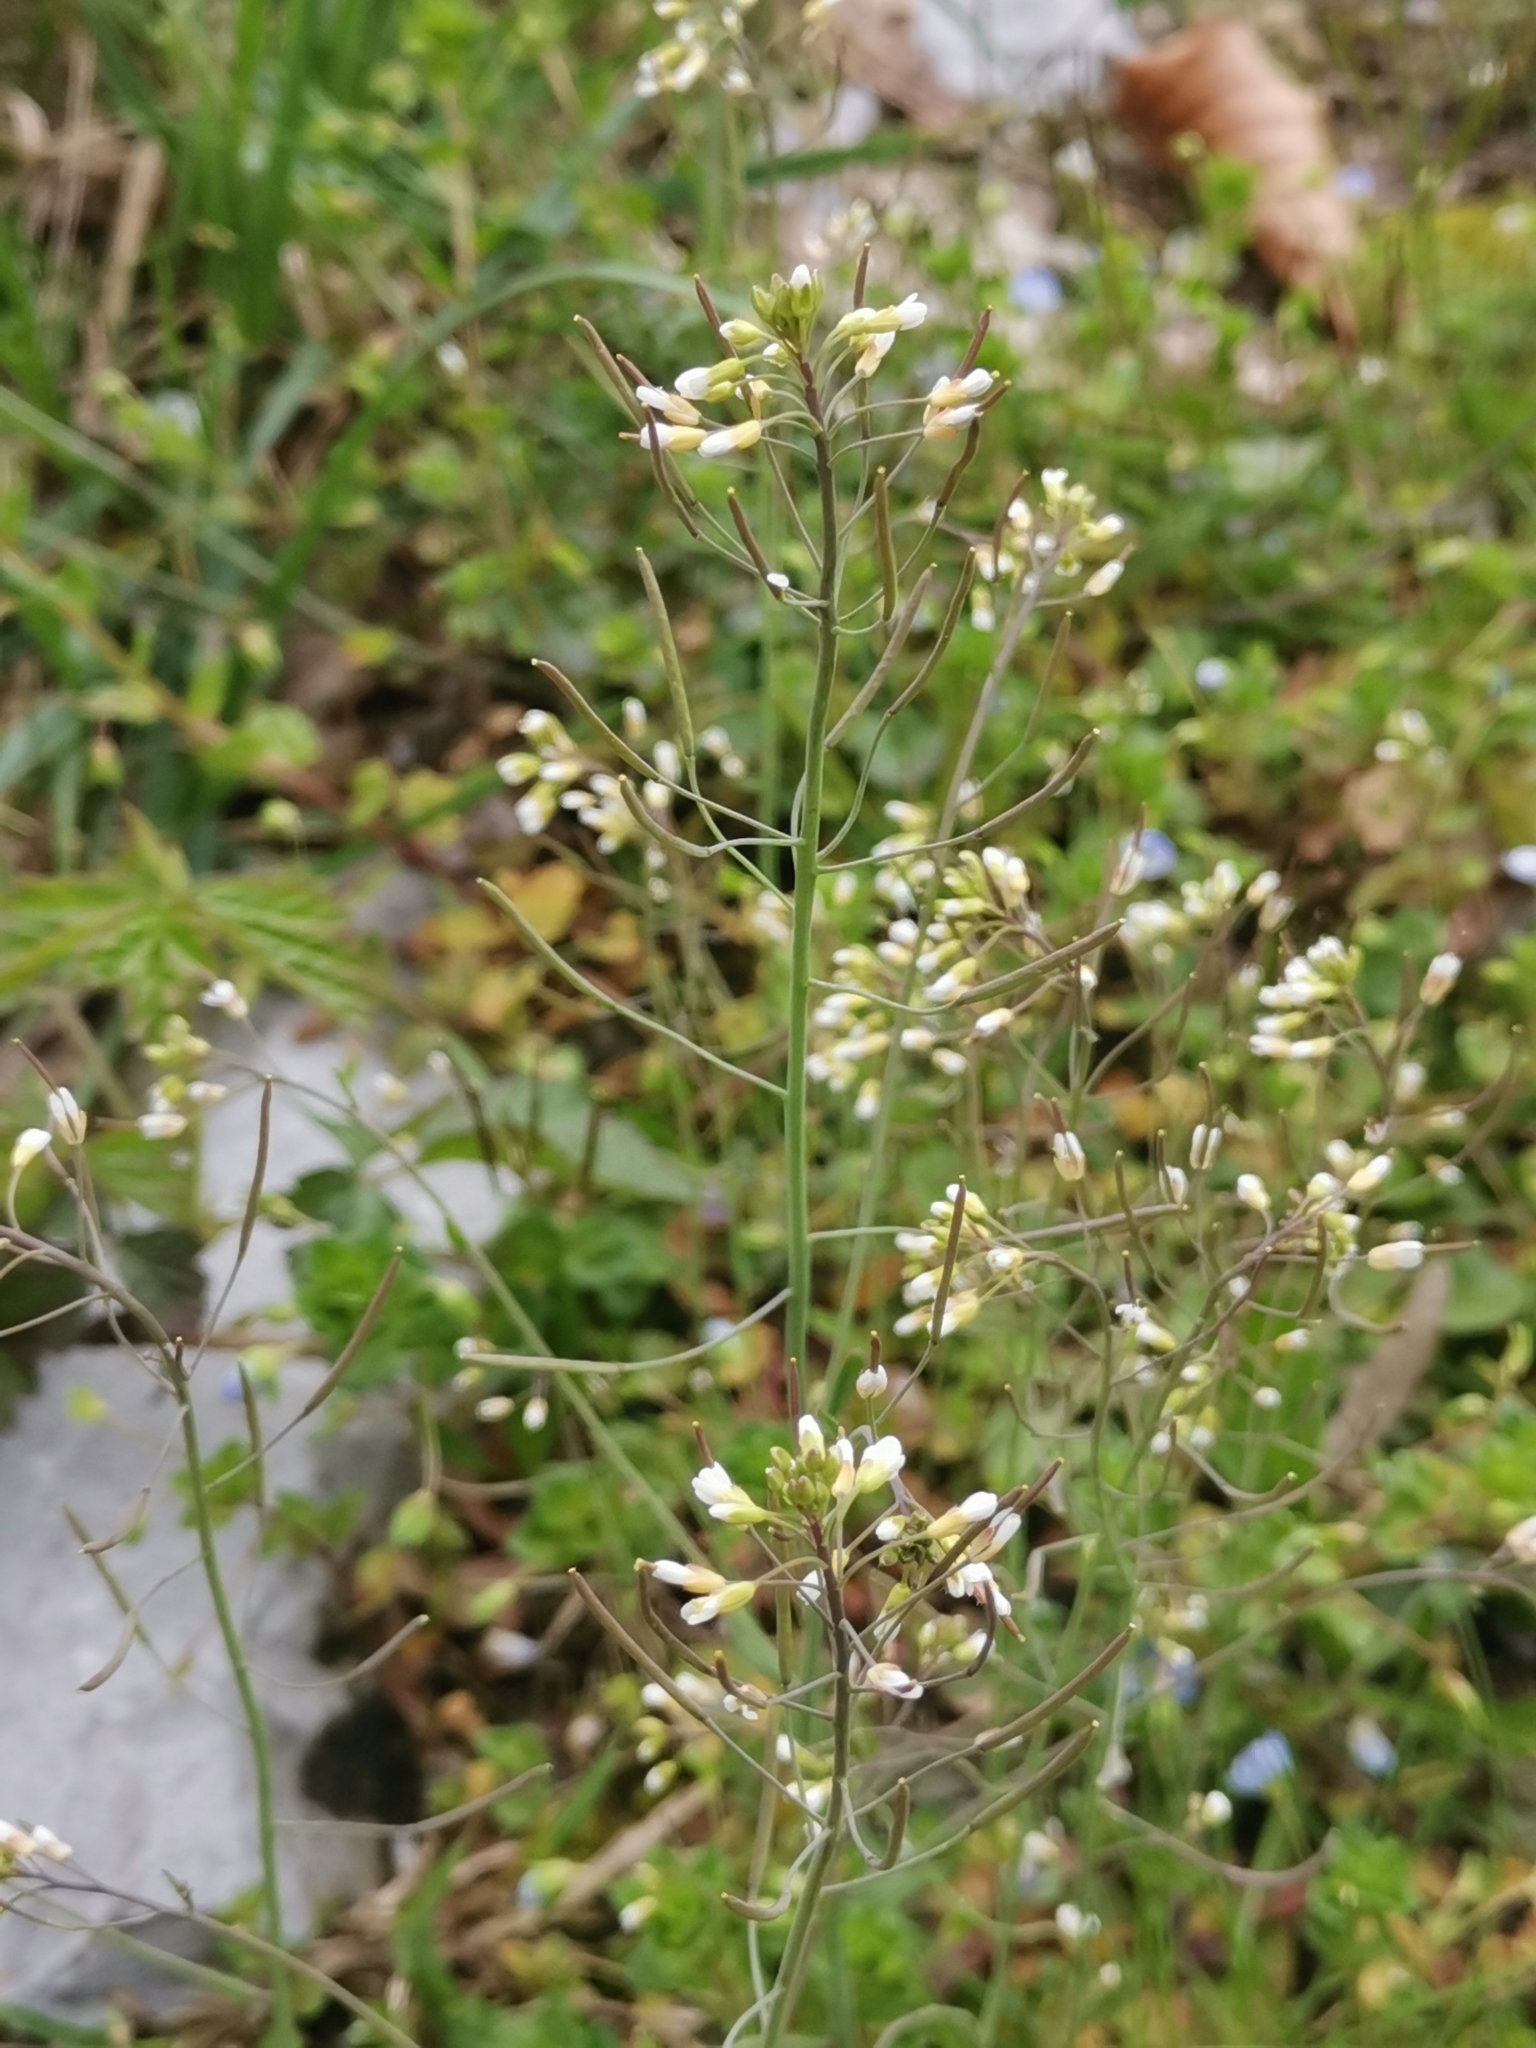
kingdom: Plantae
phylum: Tracheophyta
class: Magnoliopsida
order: Brassicales
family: Brassicaceae
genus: Arabidopsis
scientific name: Arabidopsis thaliana
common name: Thale cress
